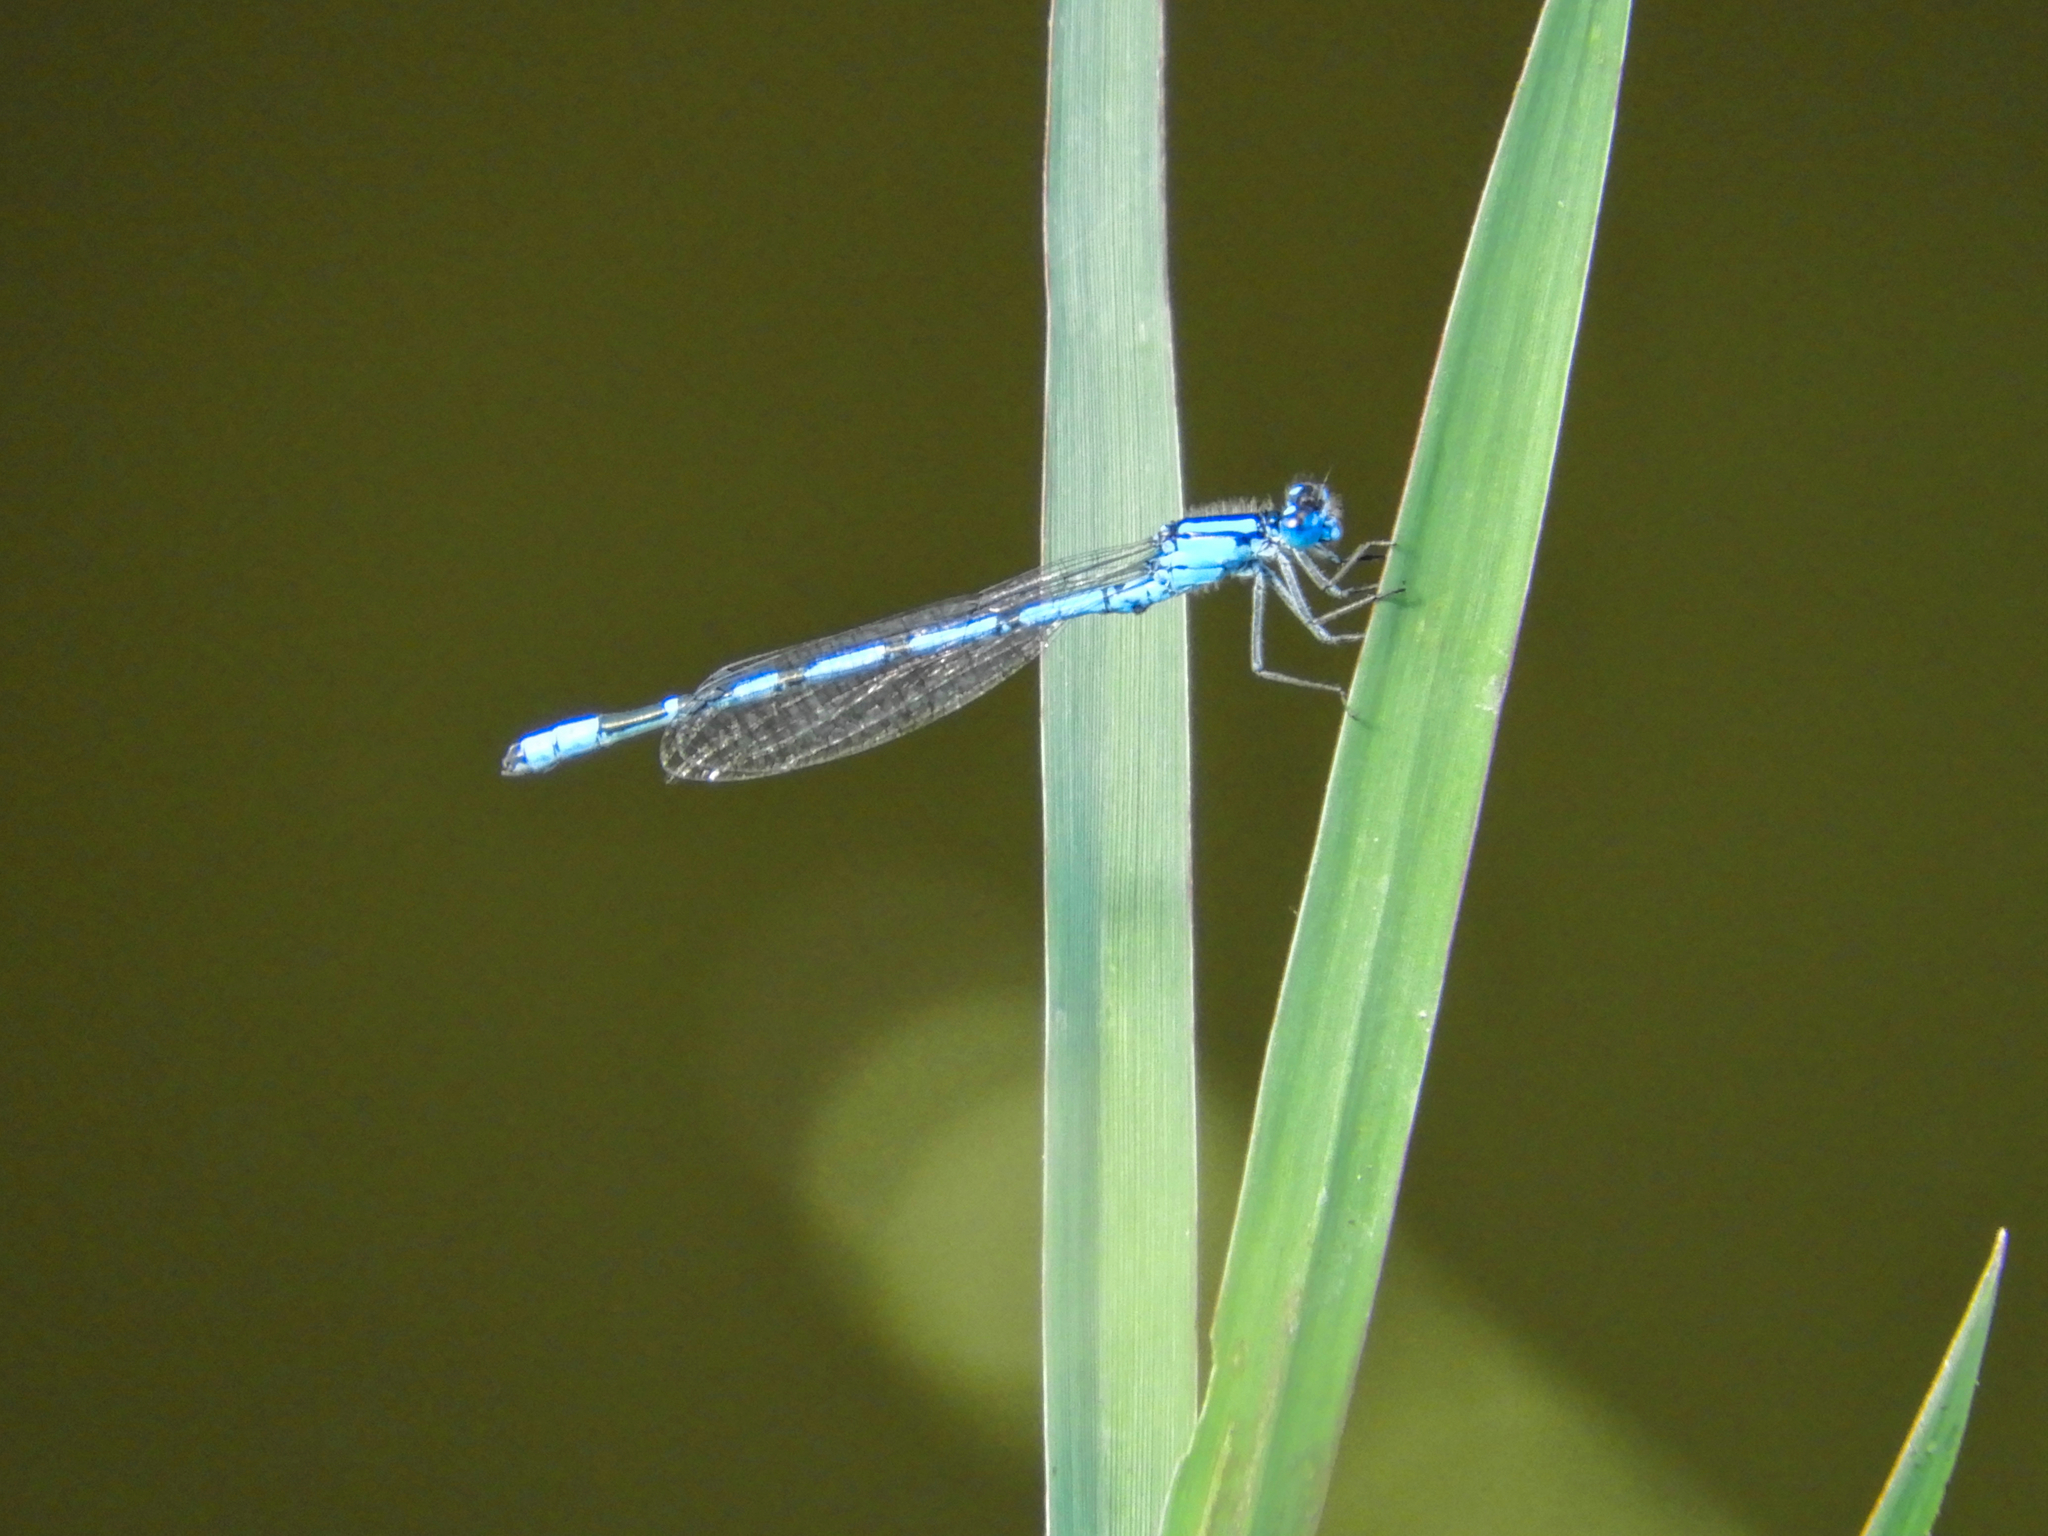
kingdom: Animalia
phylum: Arthropoda
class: Insecta
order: Odonata
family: Coenagrionidae
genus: Enallagma
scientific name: Enallagma cyathigerum
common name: Common blue damselfly
